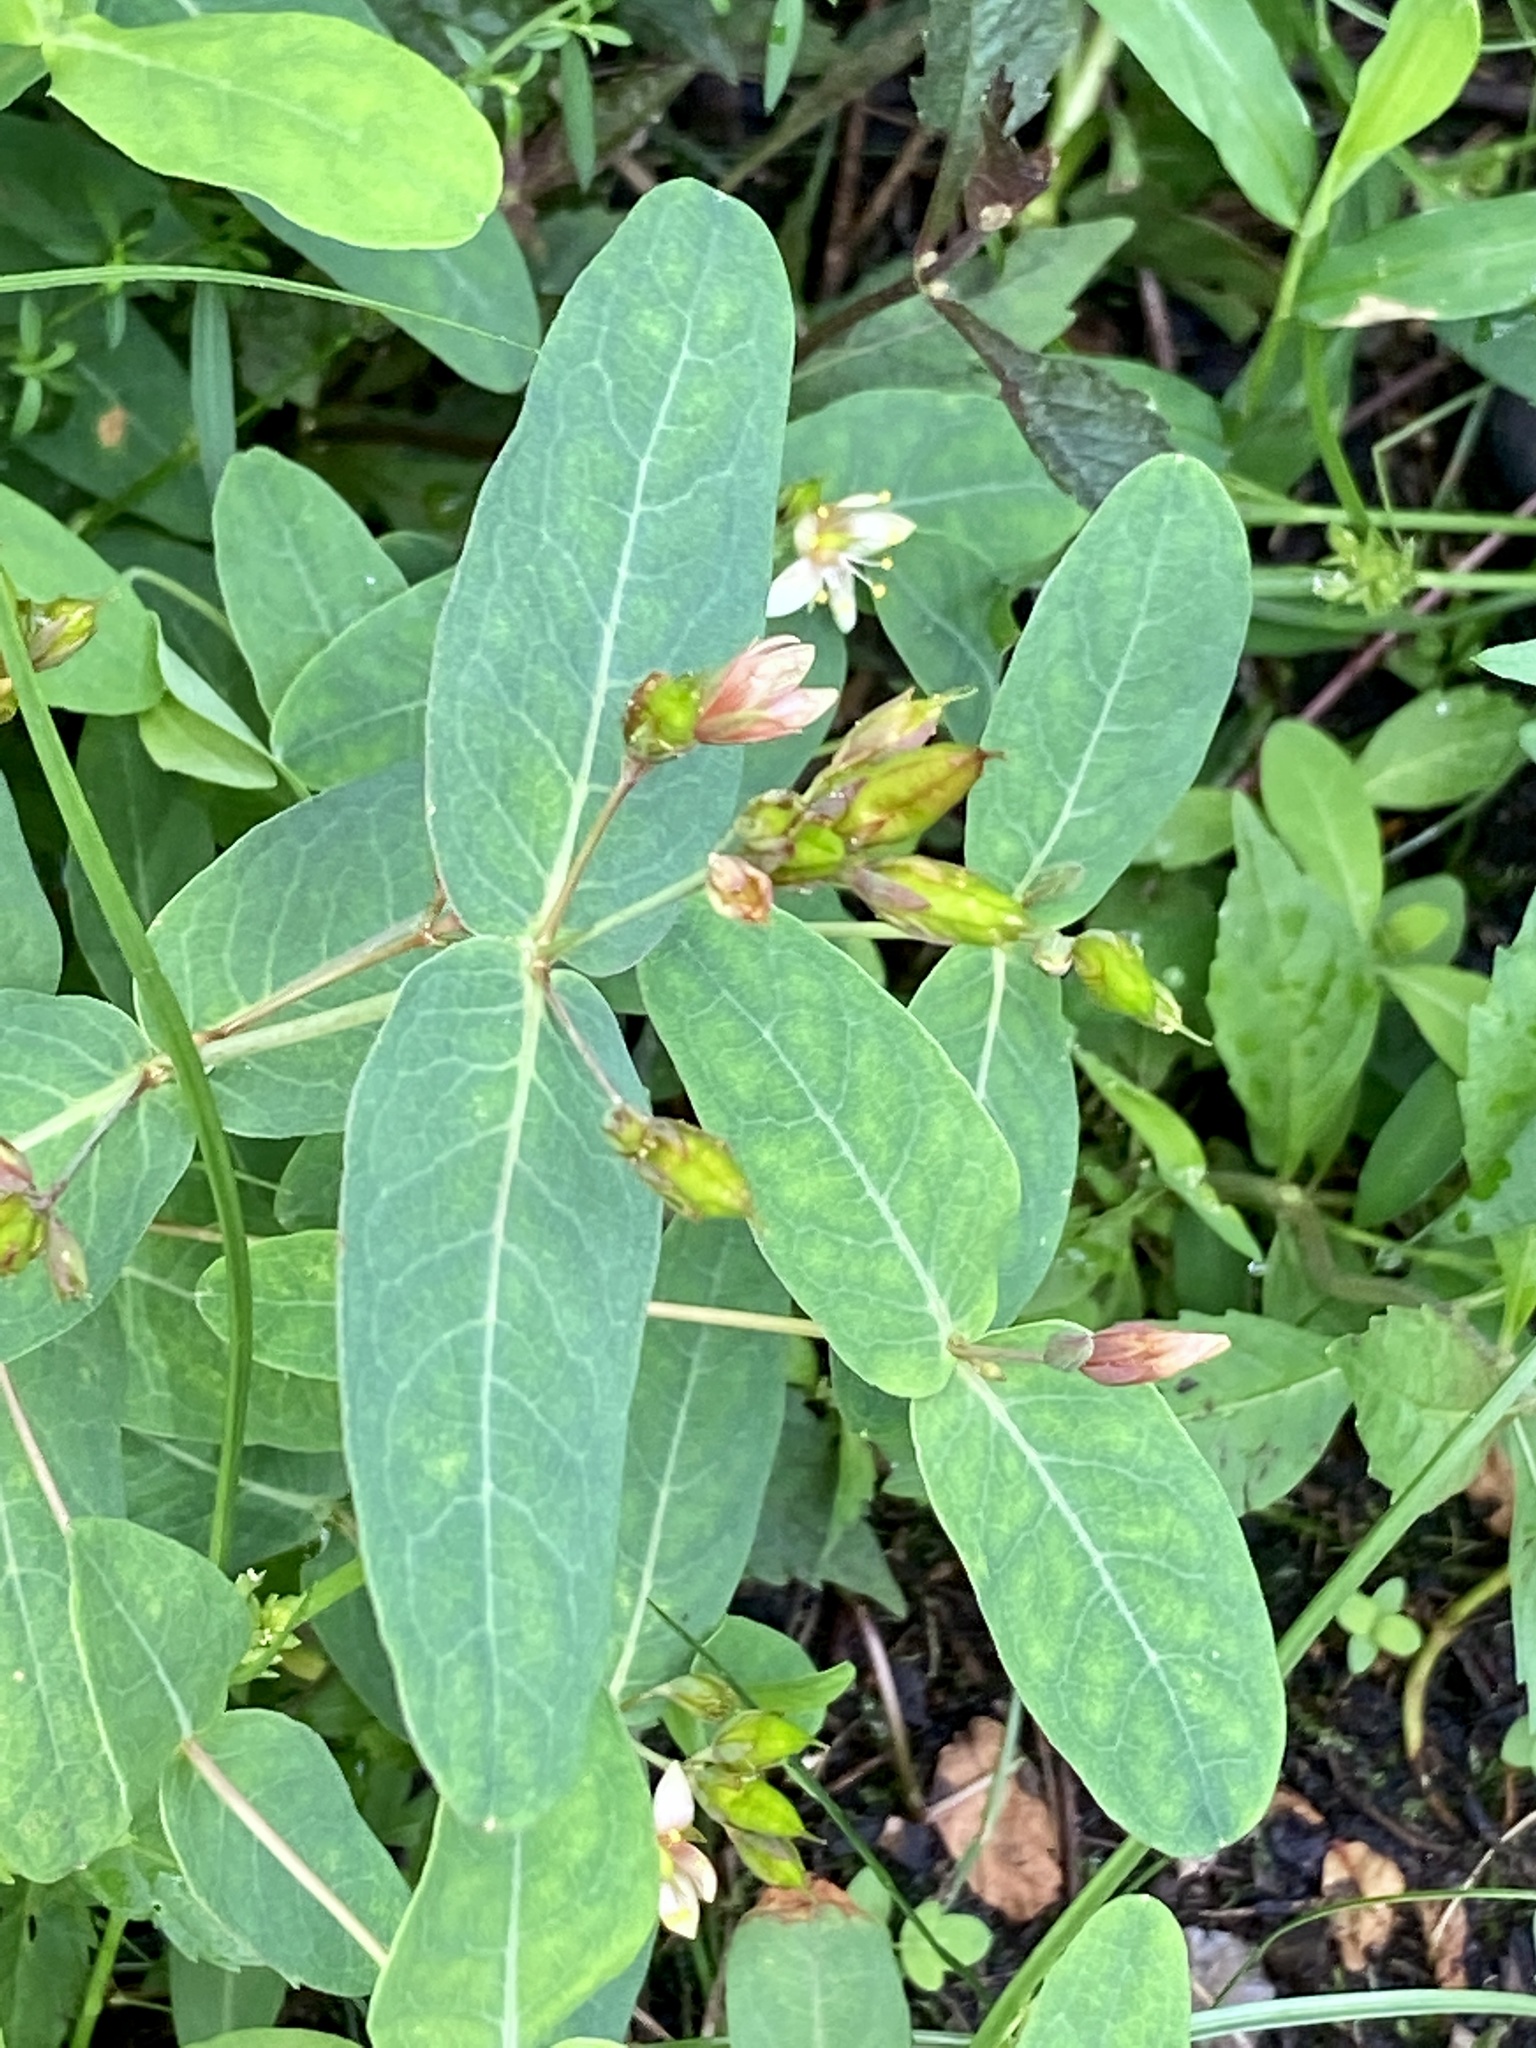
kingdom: Plantae
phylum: Tracheophyta
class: Magnoliopsida
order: Malpighiales
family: Hypericaceae
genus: Triadenum
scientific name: Triadenum virginicum
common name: Marsh st. john's-wort
